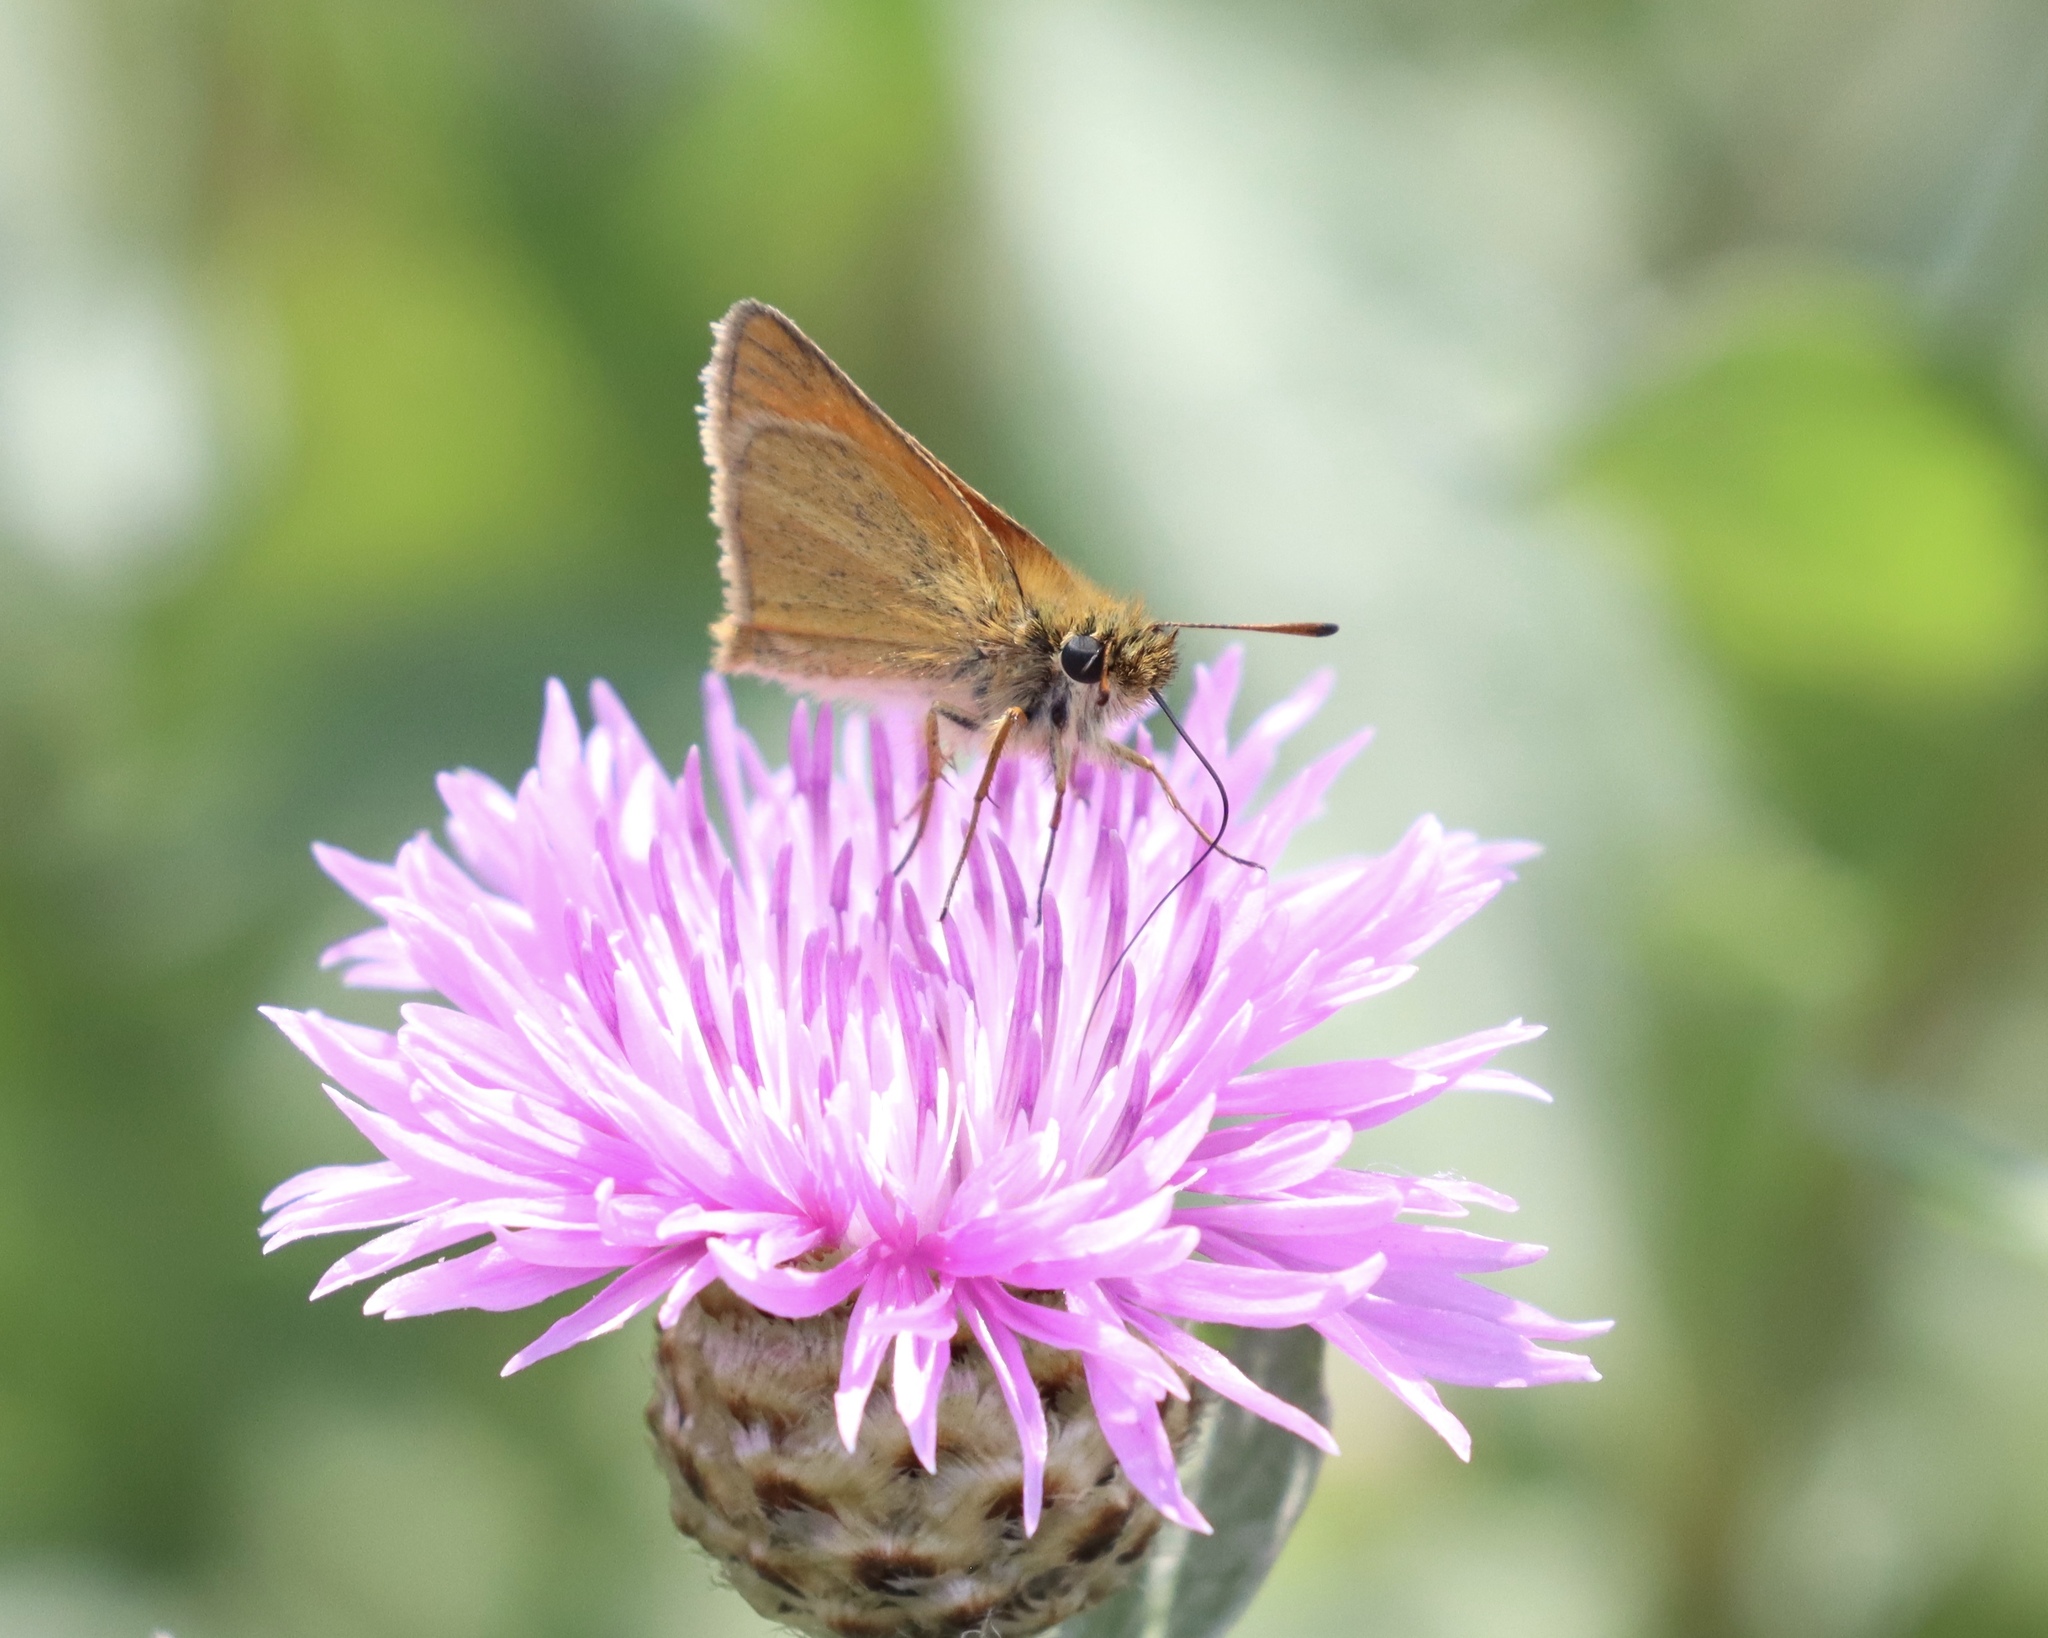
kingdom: Animalia
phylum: Arthropoda
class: Insecta
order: Lepidoptera
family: Hesperiidae
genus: Thymelicus
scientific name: Thymelicus lineola
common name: Essex skipper
